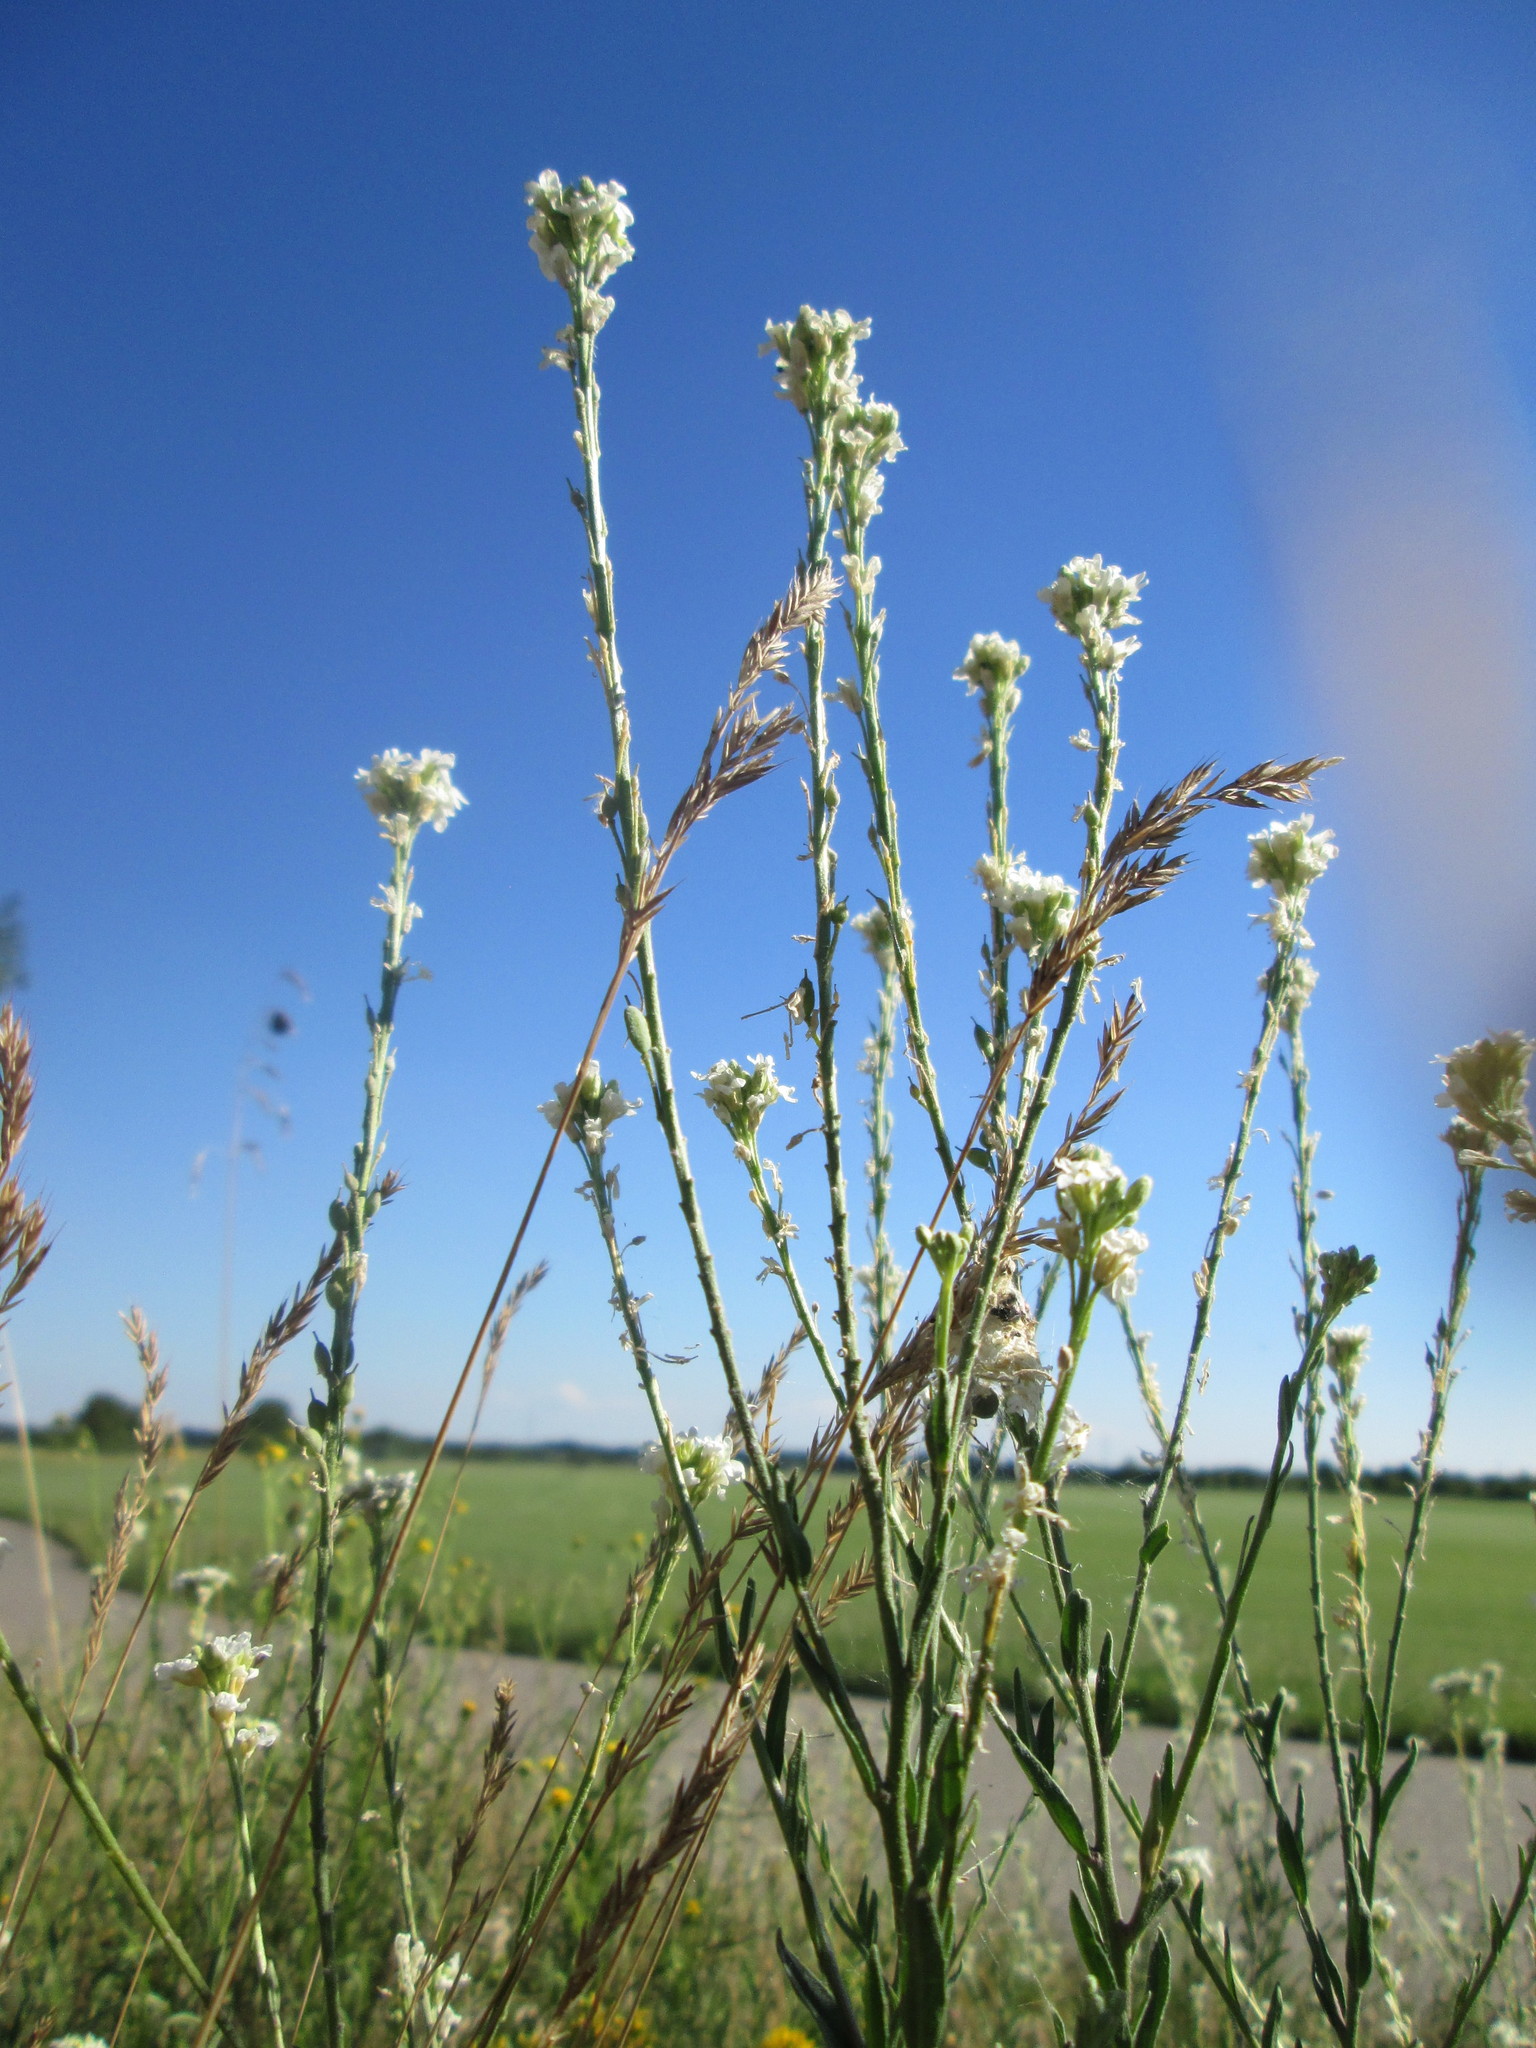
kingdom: Plantae
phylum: Tracheophyta
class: Magnoliopsida
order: Brassicales
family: Brassicaceae
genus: Berteroa
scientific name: Berteroa incana
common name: Hoary alison
